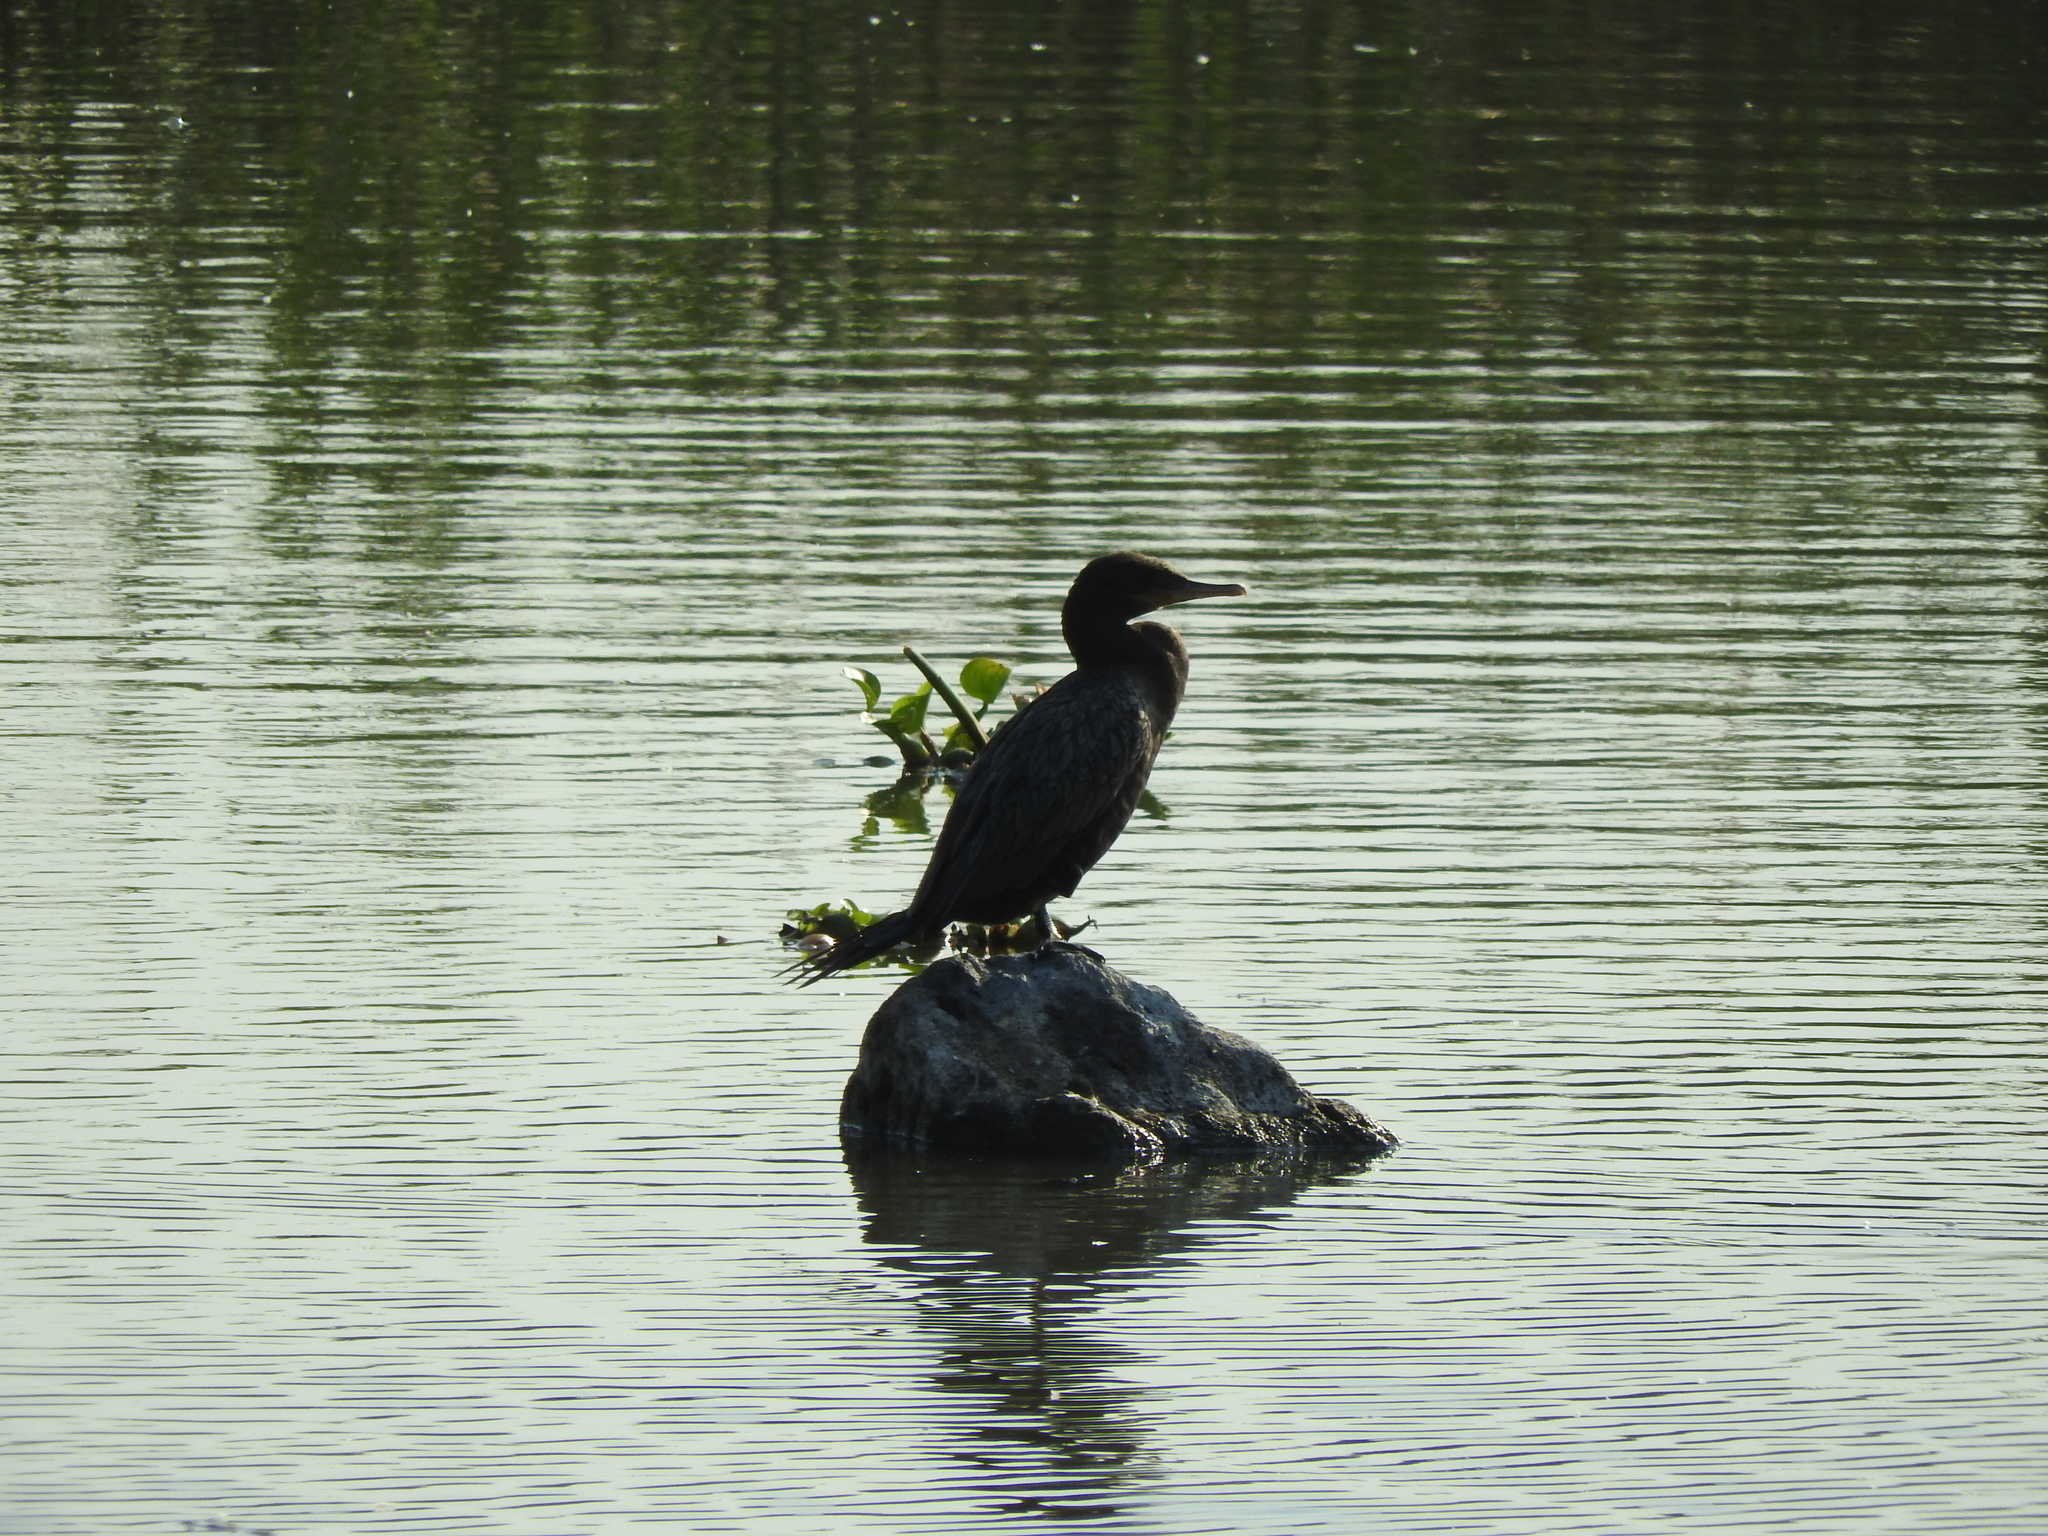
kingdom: Animalia
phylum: Chordata
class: Aves
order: Suliformes
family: Phalacrocoracidae
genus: Phalacrocorax
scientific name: Phalacrocorax brasilianus
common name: Neotropic cormorant
